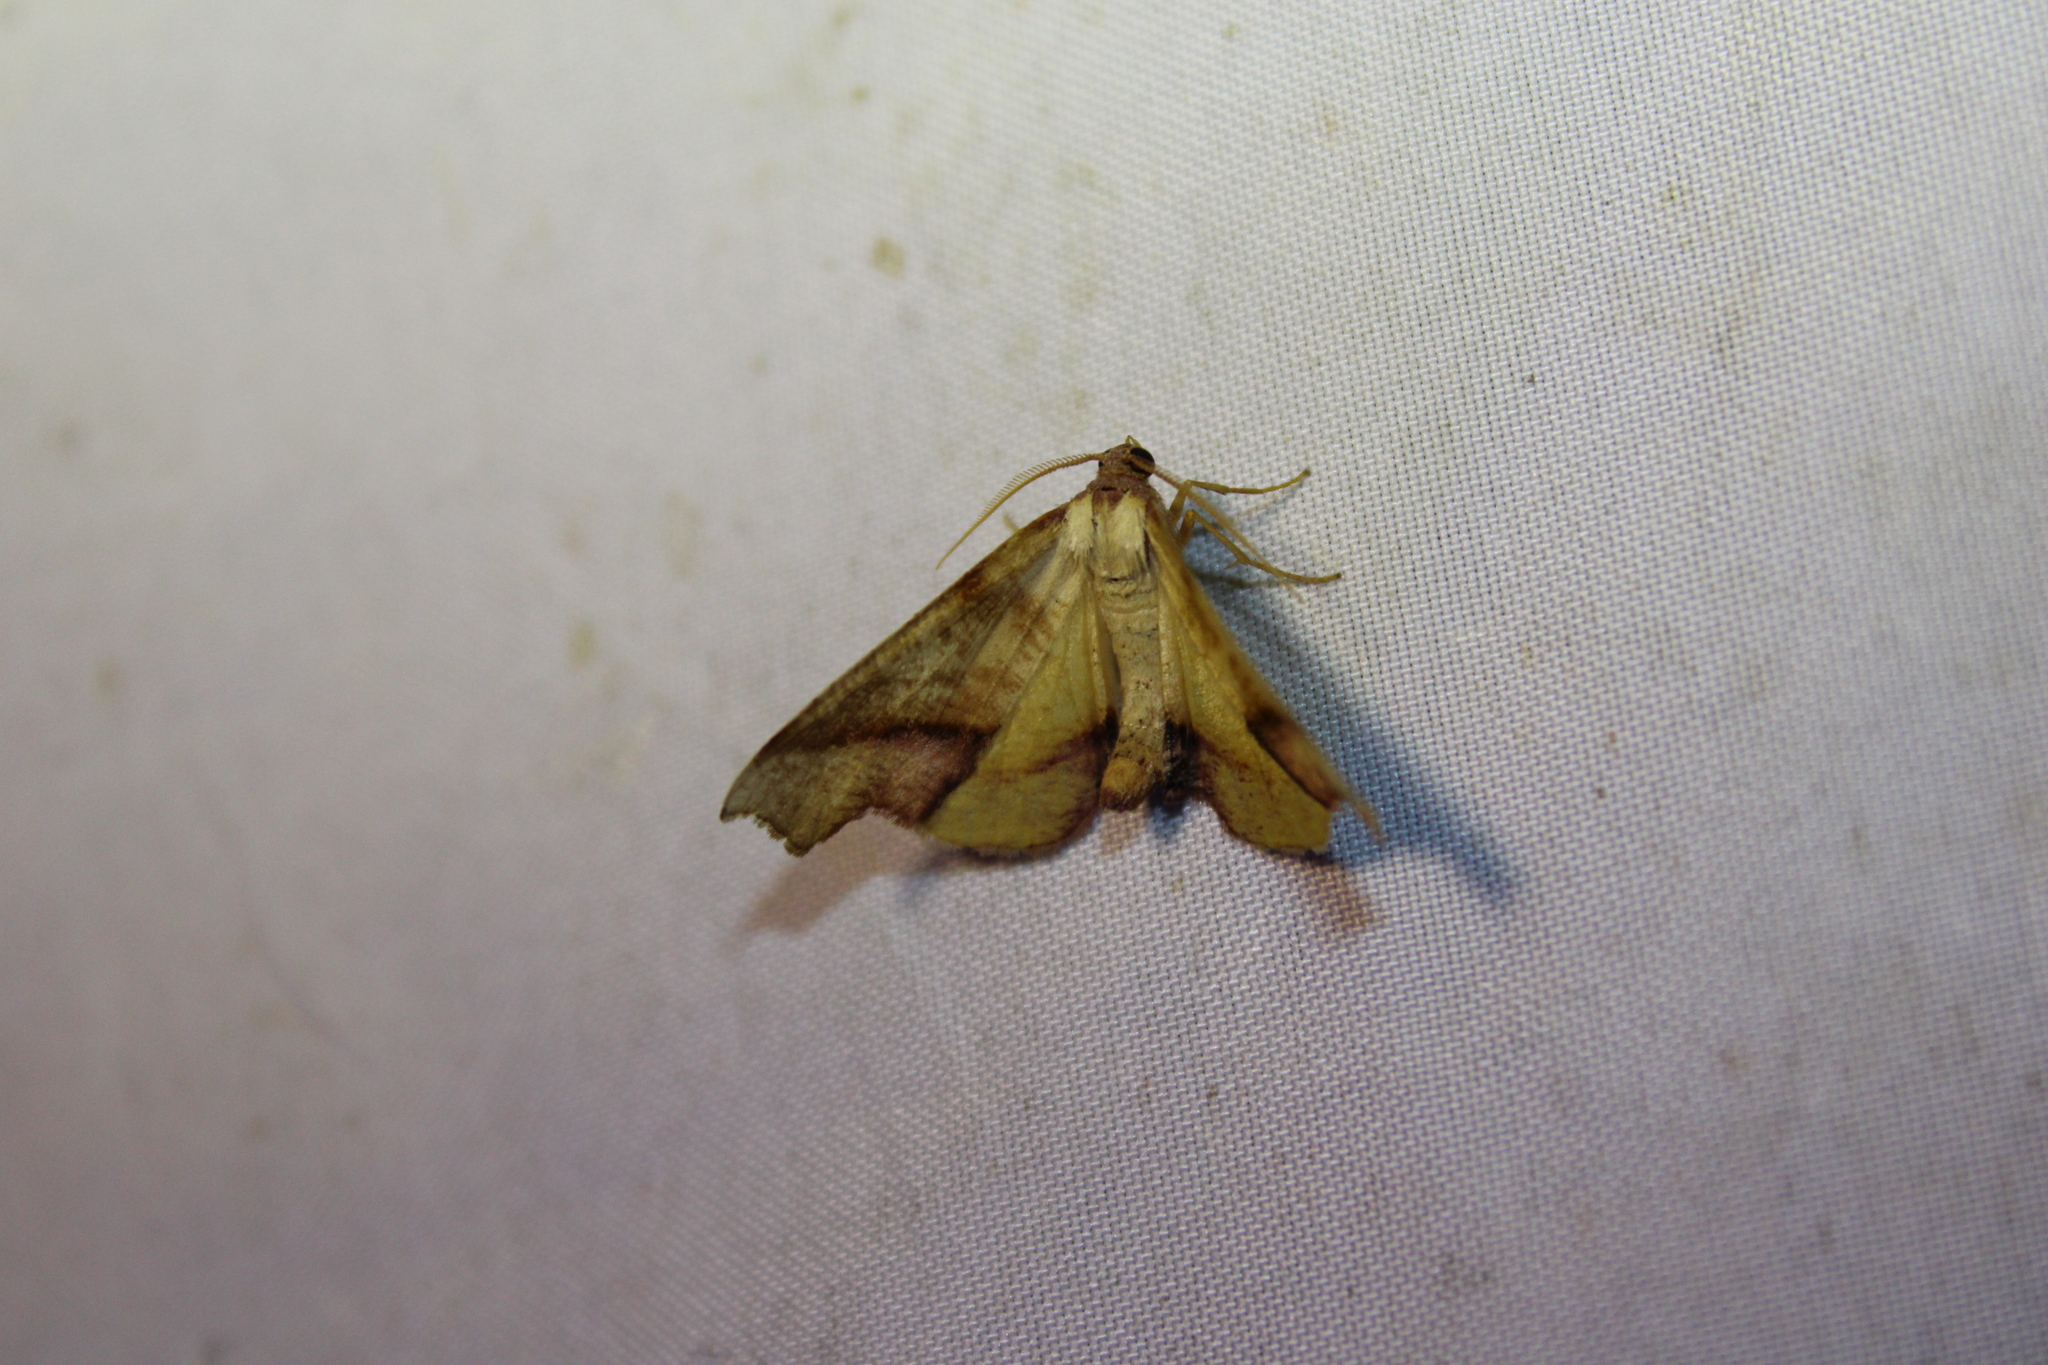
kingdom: Animalia
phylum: Arthropoda
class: Insecta
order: Lepidoptera
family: Geometridae
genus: Plagodis
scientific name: Plagodis phlogosaria
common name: Straight-lined plagodis
